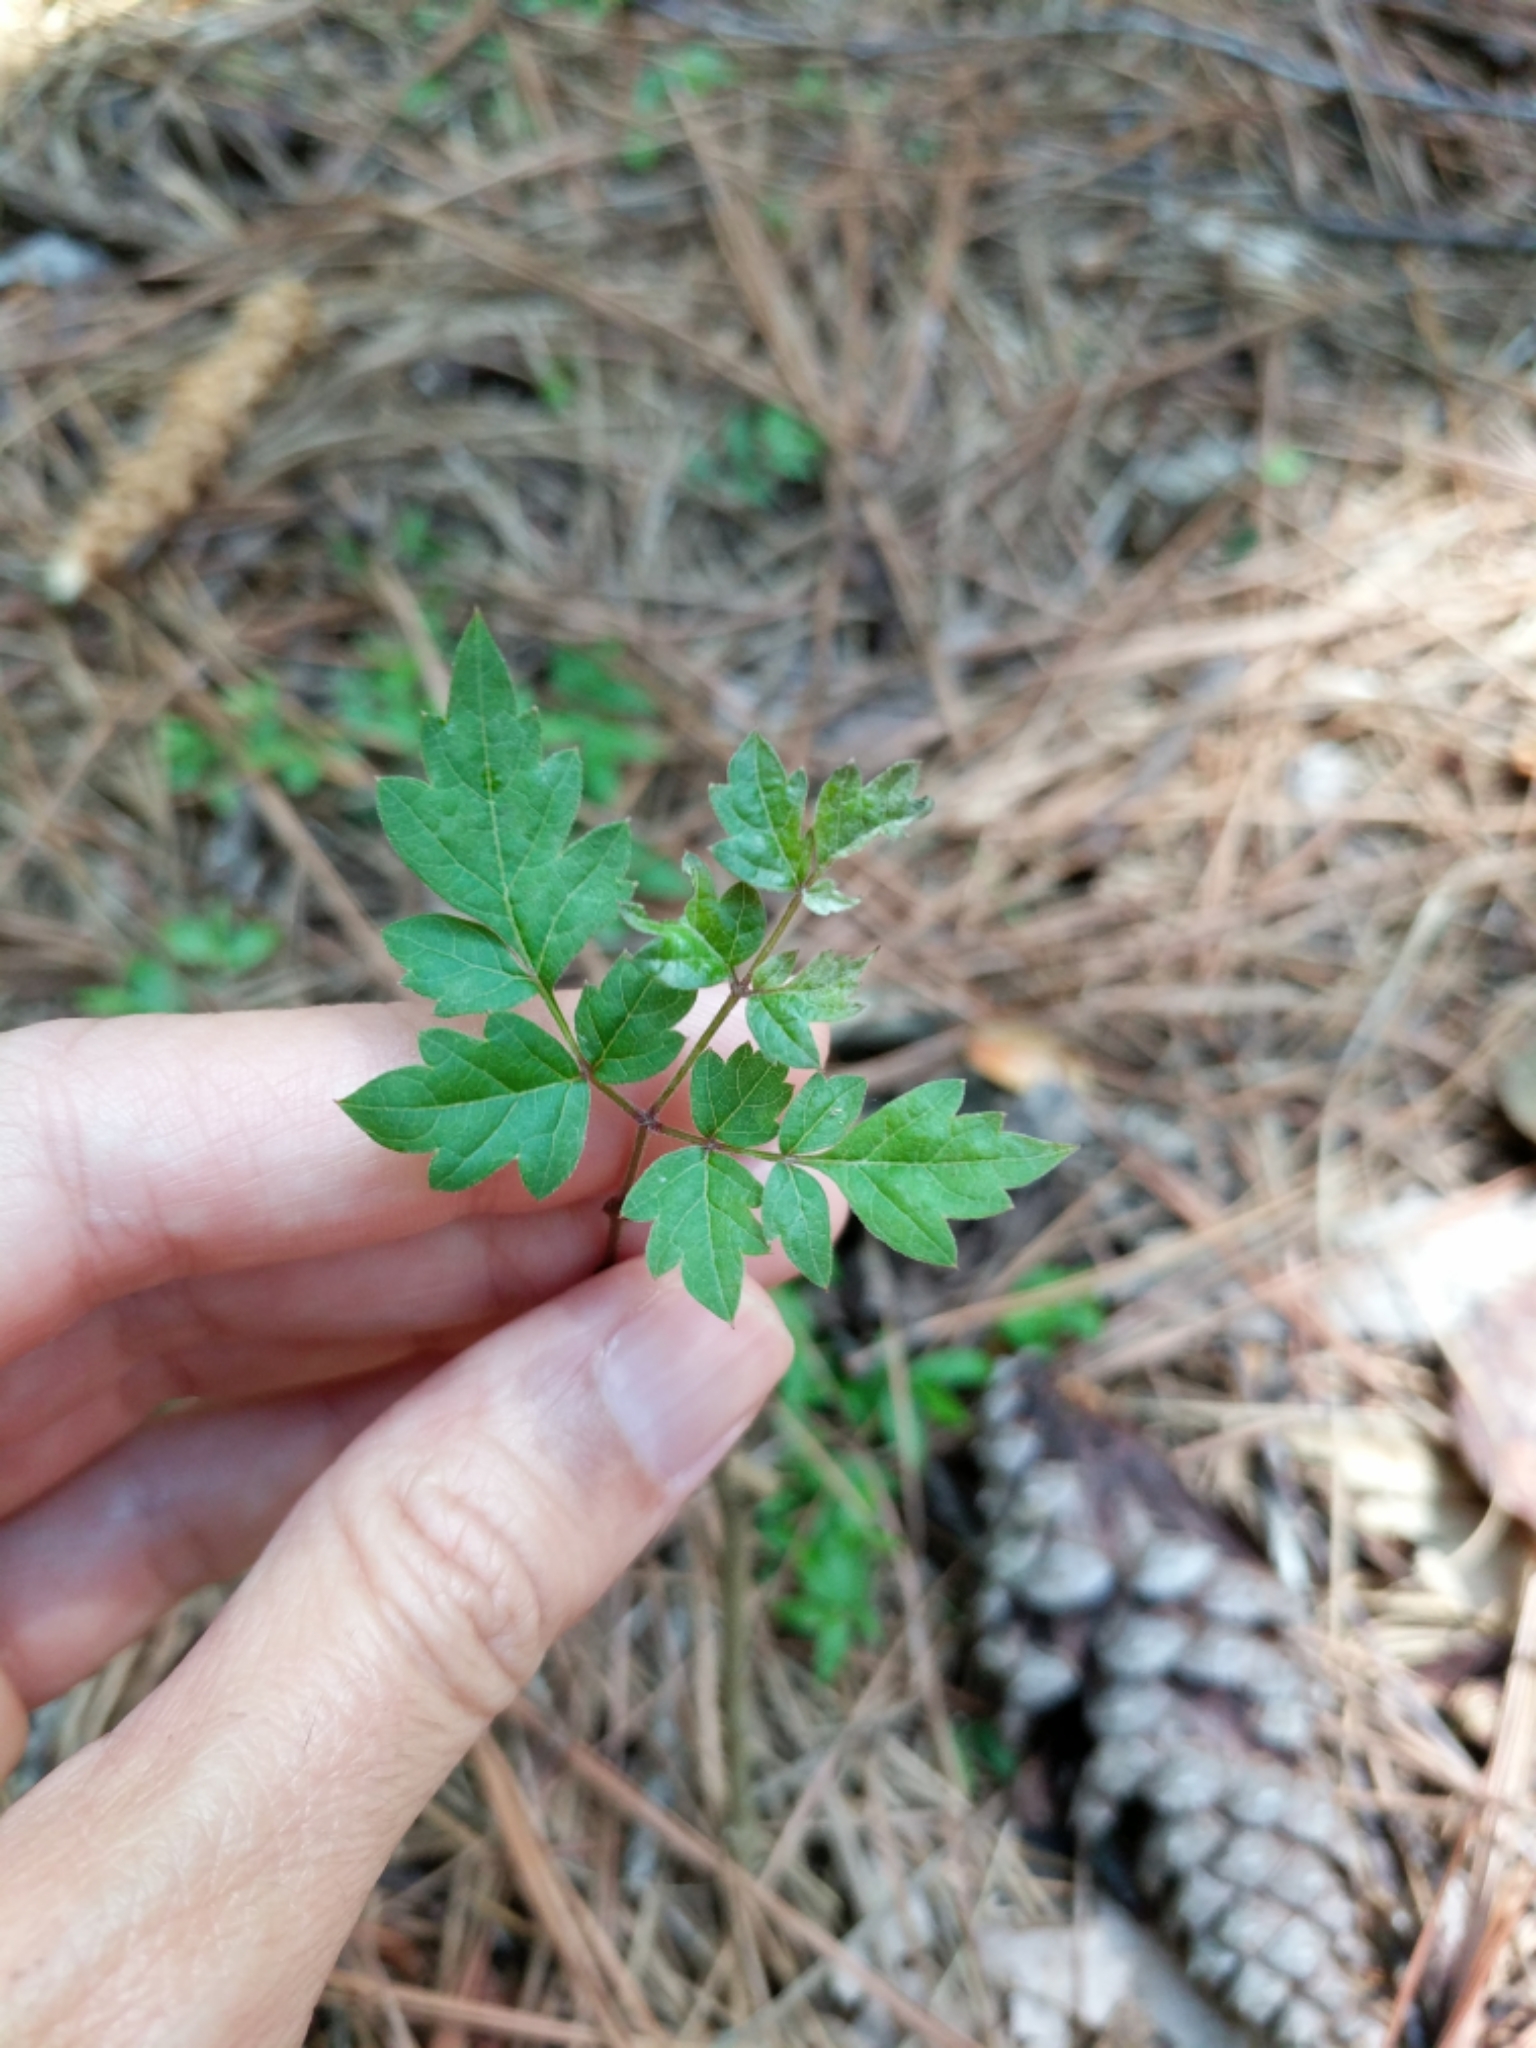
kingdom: Plantae
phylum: Tracheophyta
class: Magnoliopsida
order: Vitales
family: Vitaceae
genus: Nekemias
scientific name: Nekemias arborea
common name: Peppervine
